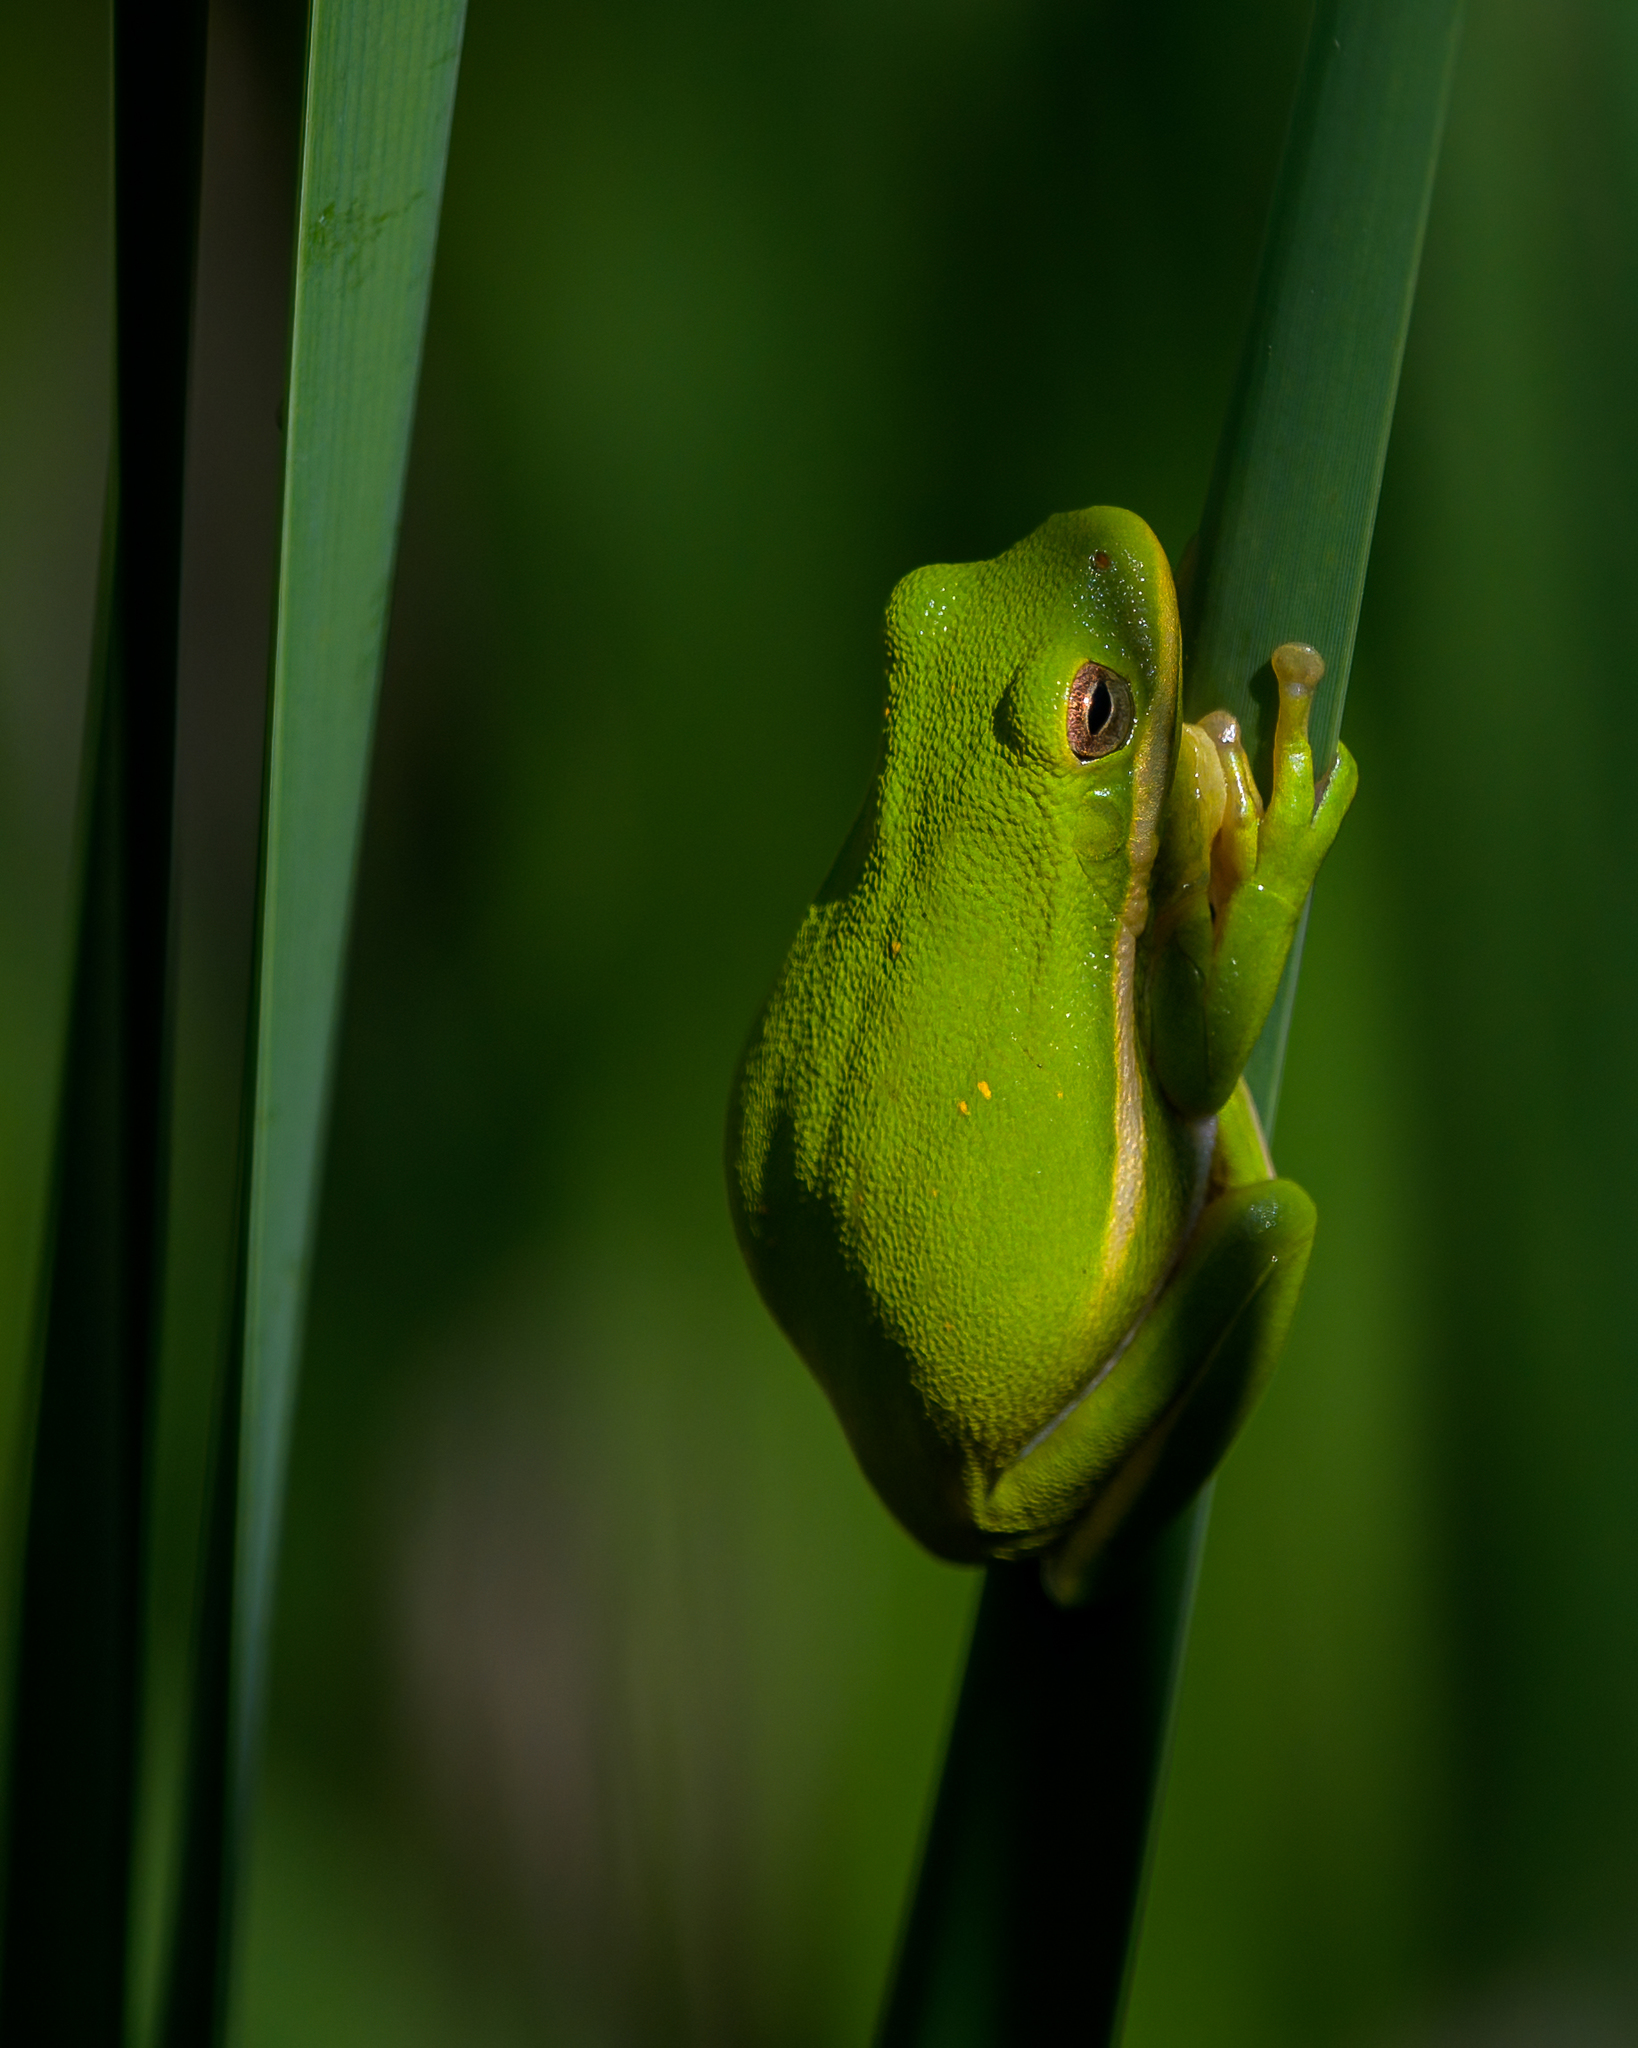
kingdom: Animalia
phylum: Chordata
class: Amphibia
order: Anura
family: Hylidae
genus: Dryophytes
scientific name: Dryophytes cinereus
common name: Green treefrog
